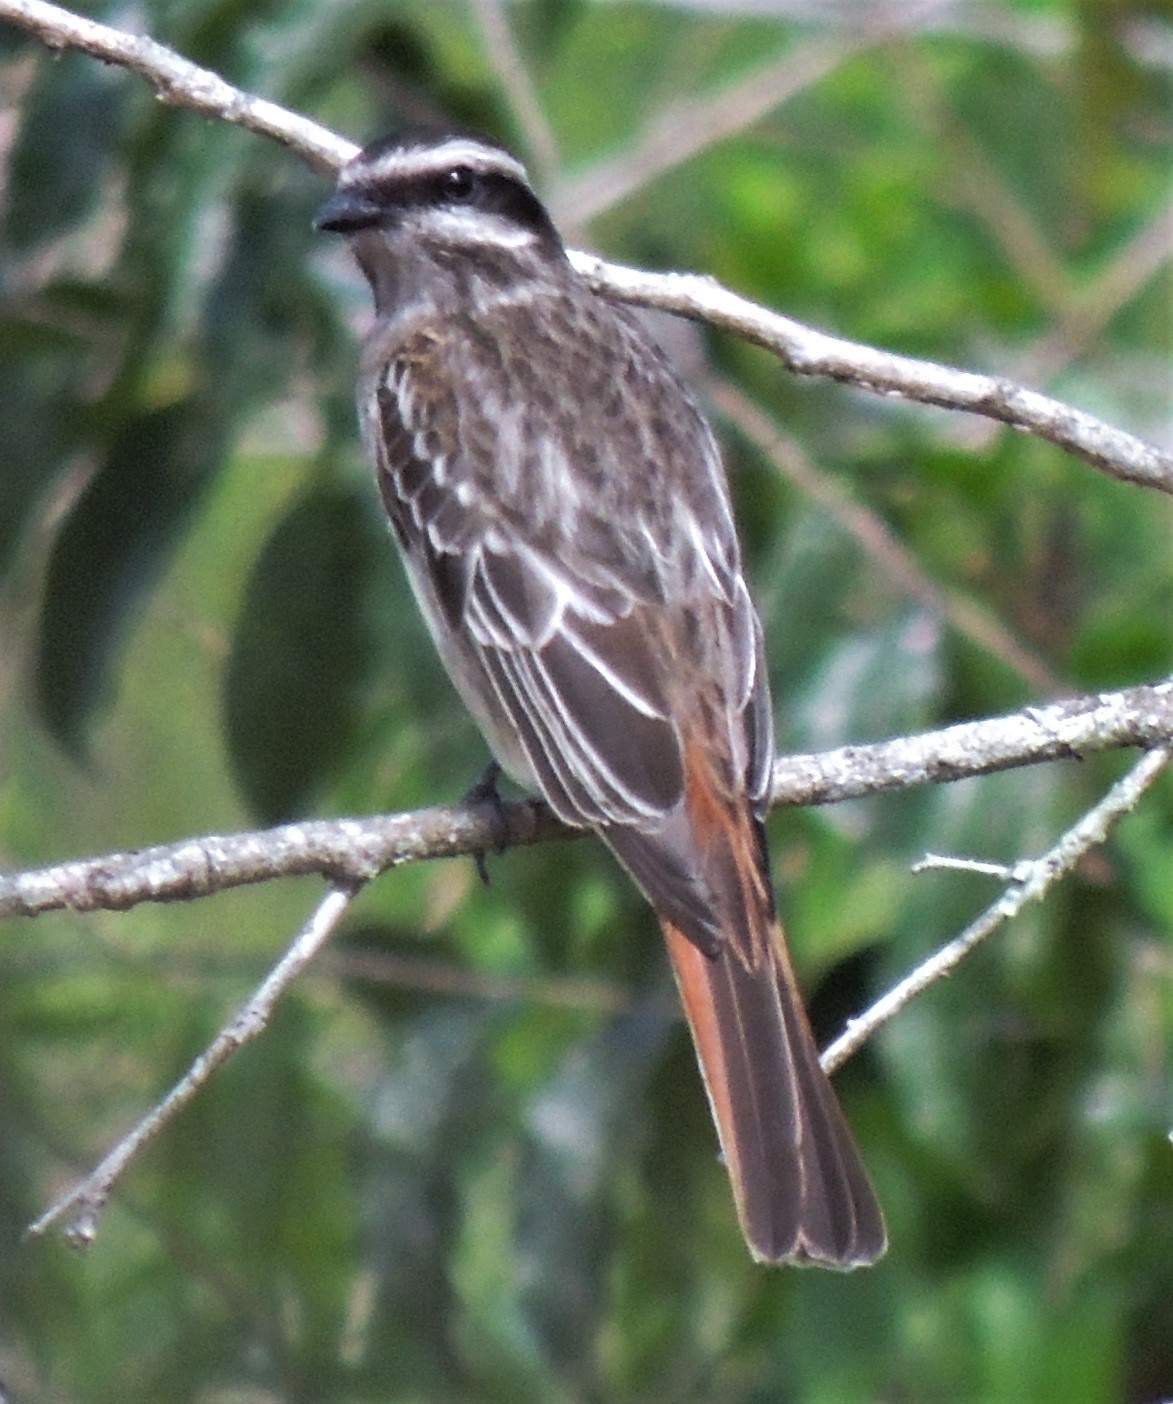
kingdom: Animalia
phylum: Chordata
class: Aves
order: Passeriformes
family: Tyrannidae
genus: Empidonomus
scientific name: Empidonomus varius
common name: Variegated flycatcher
